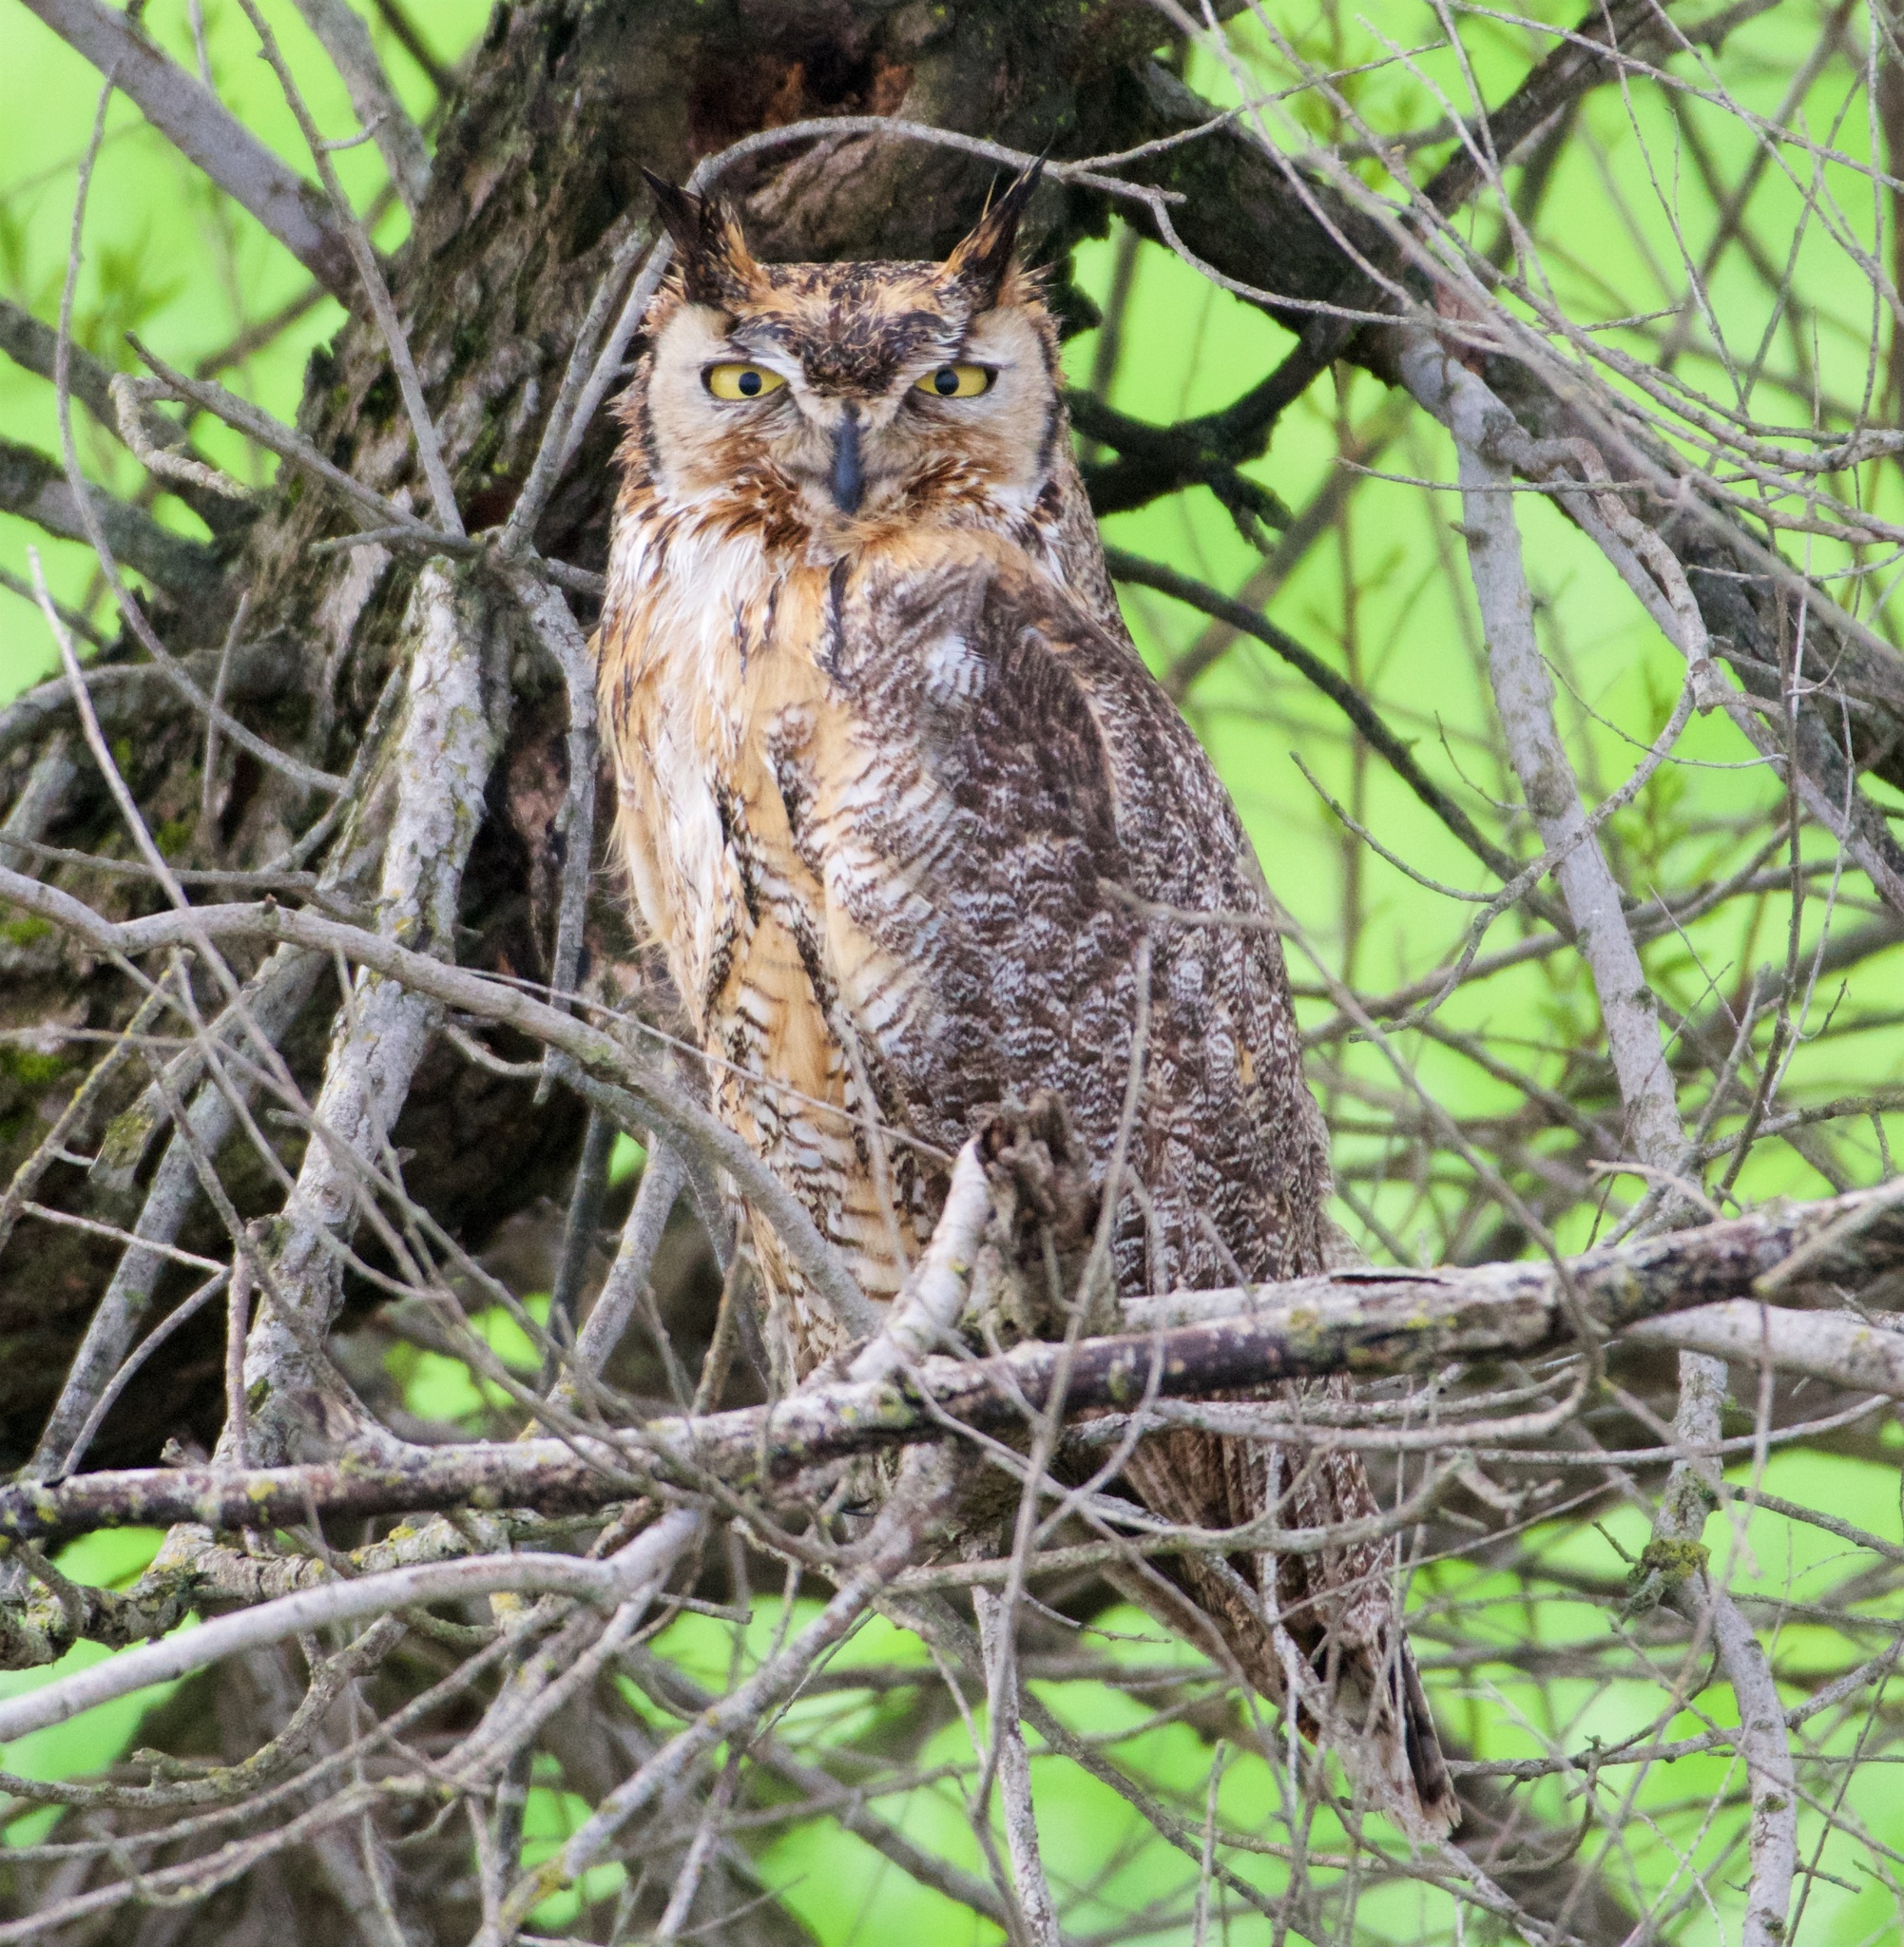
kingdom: Animalia
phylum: Chordata
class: Aves
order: Strigiformes
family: Strigidae
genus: Bubo
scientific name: Bubo virginianus
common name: Great horned owl
